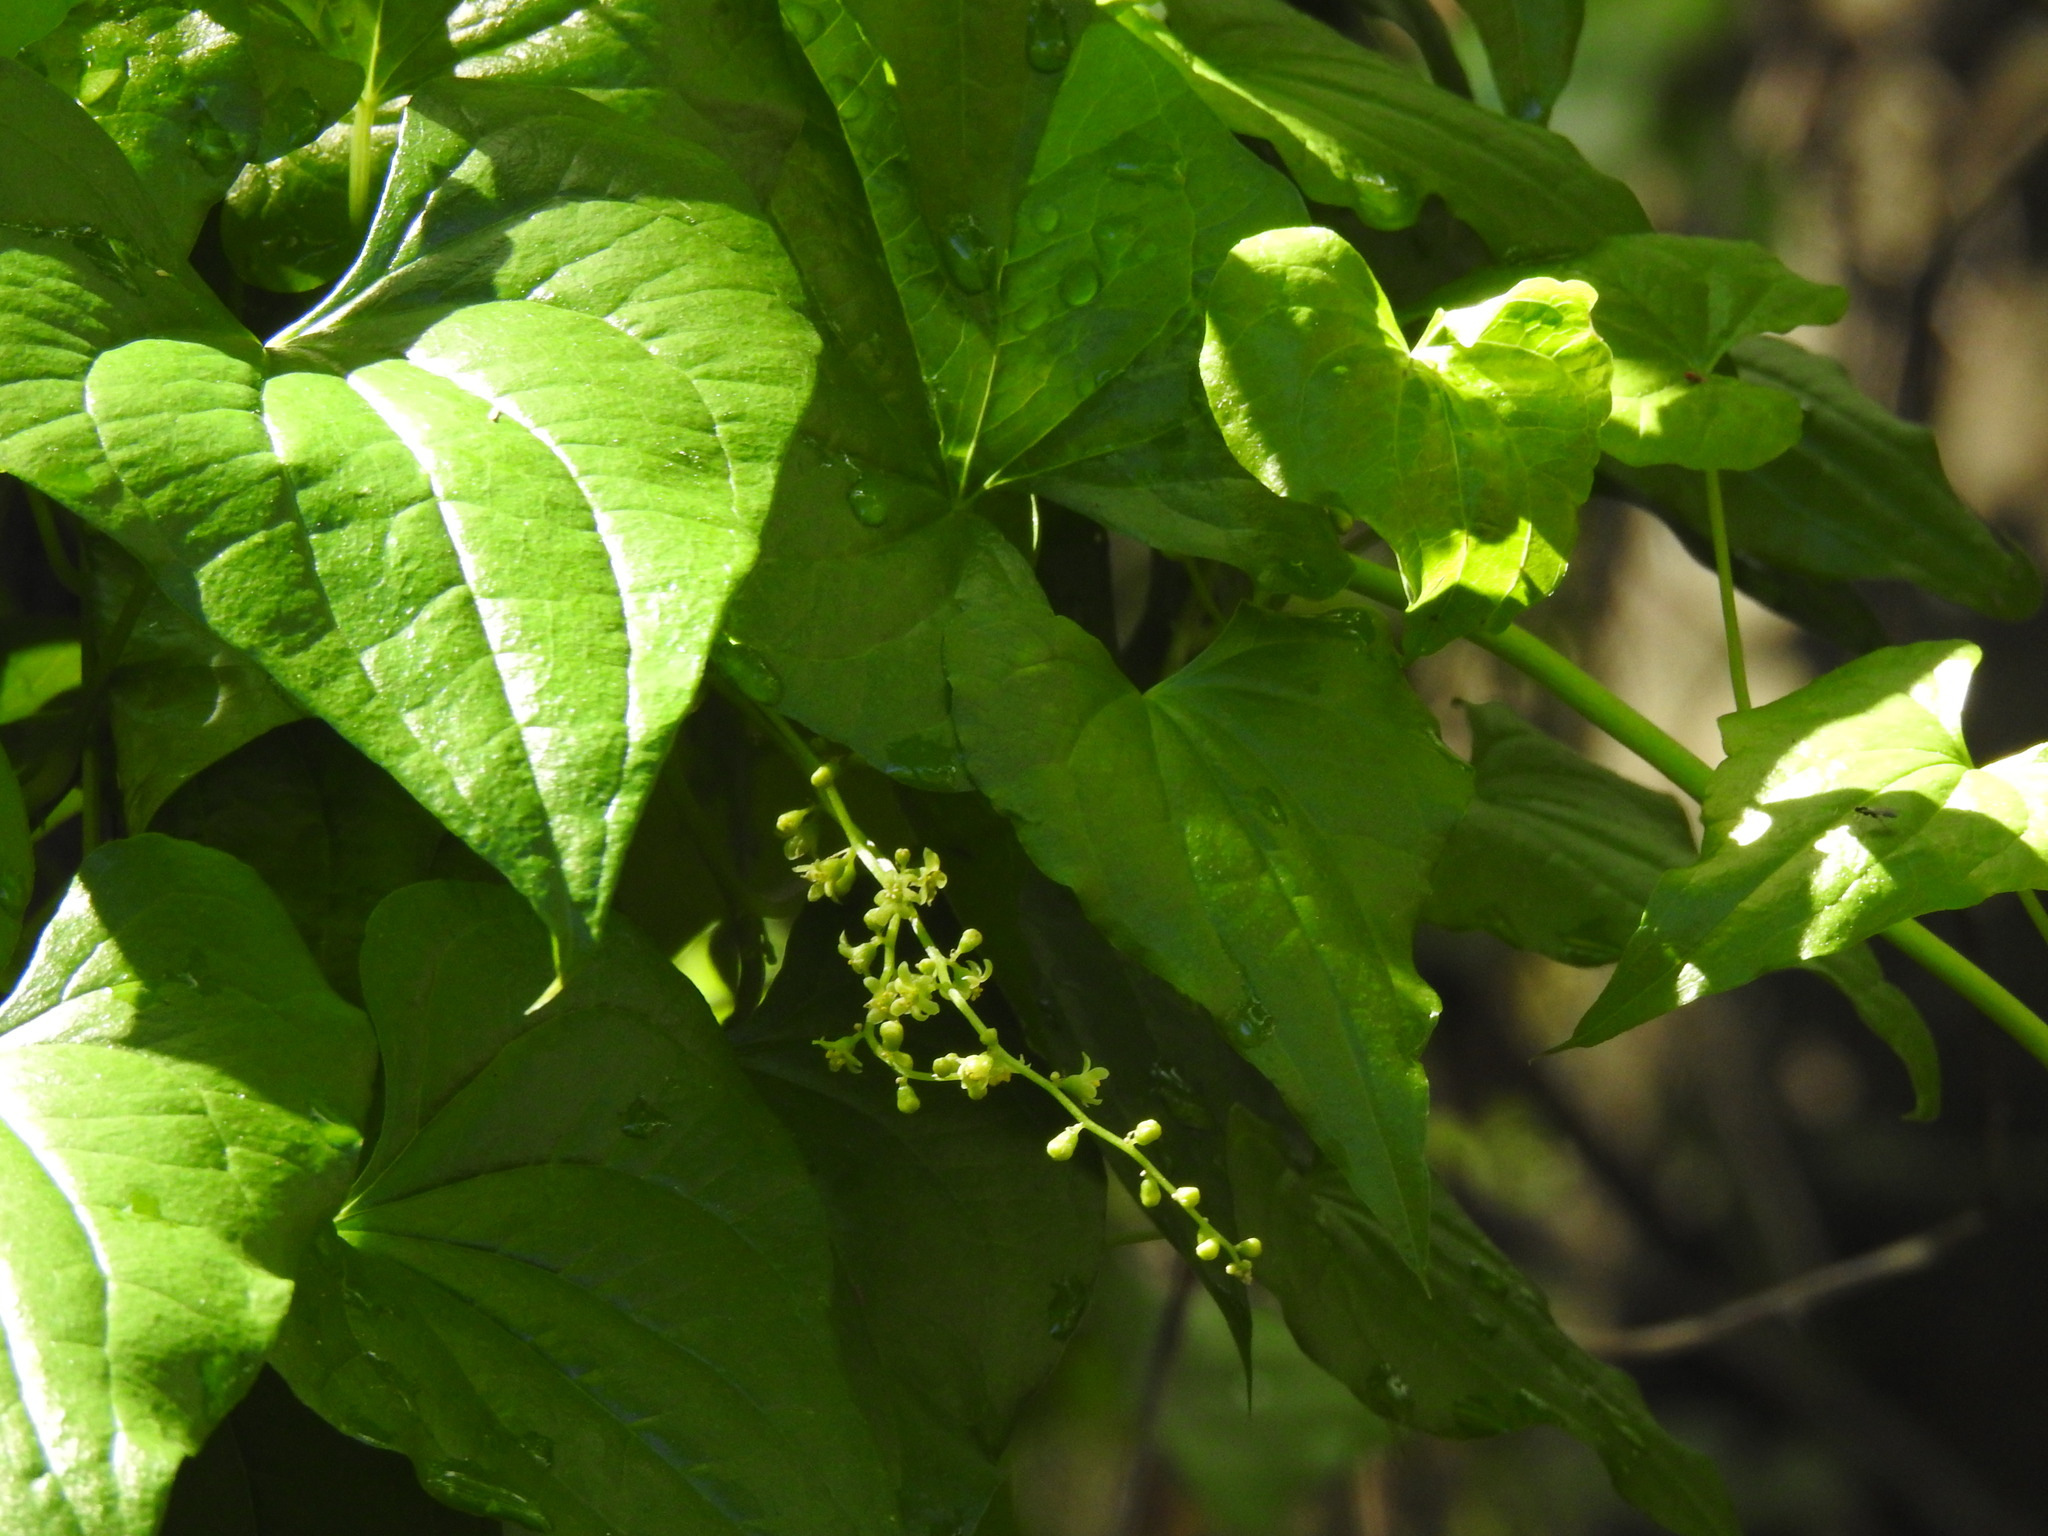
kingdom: Plantae
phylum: Tracheophyta
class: Liliopsida
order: Dioscoreales
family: Dioscoreaceae
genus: Dioscorea
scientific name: Dioscorea communis
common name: Black-bindweed
